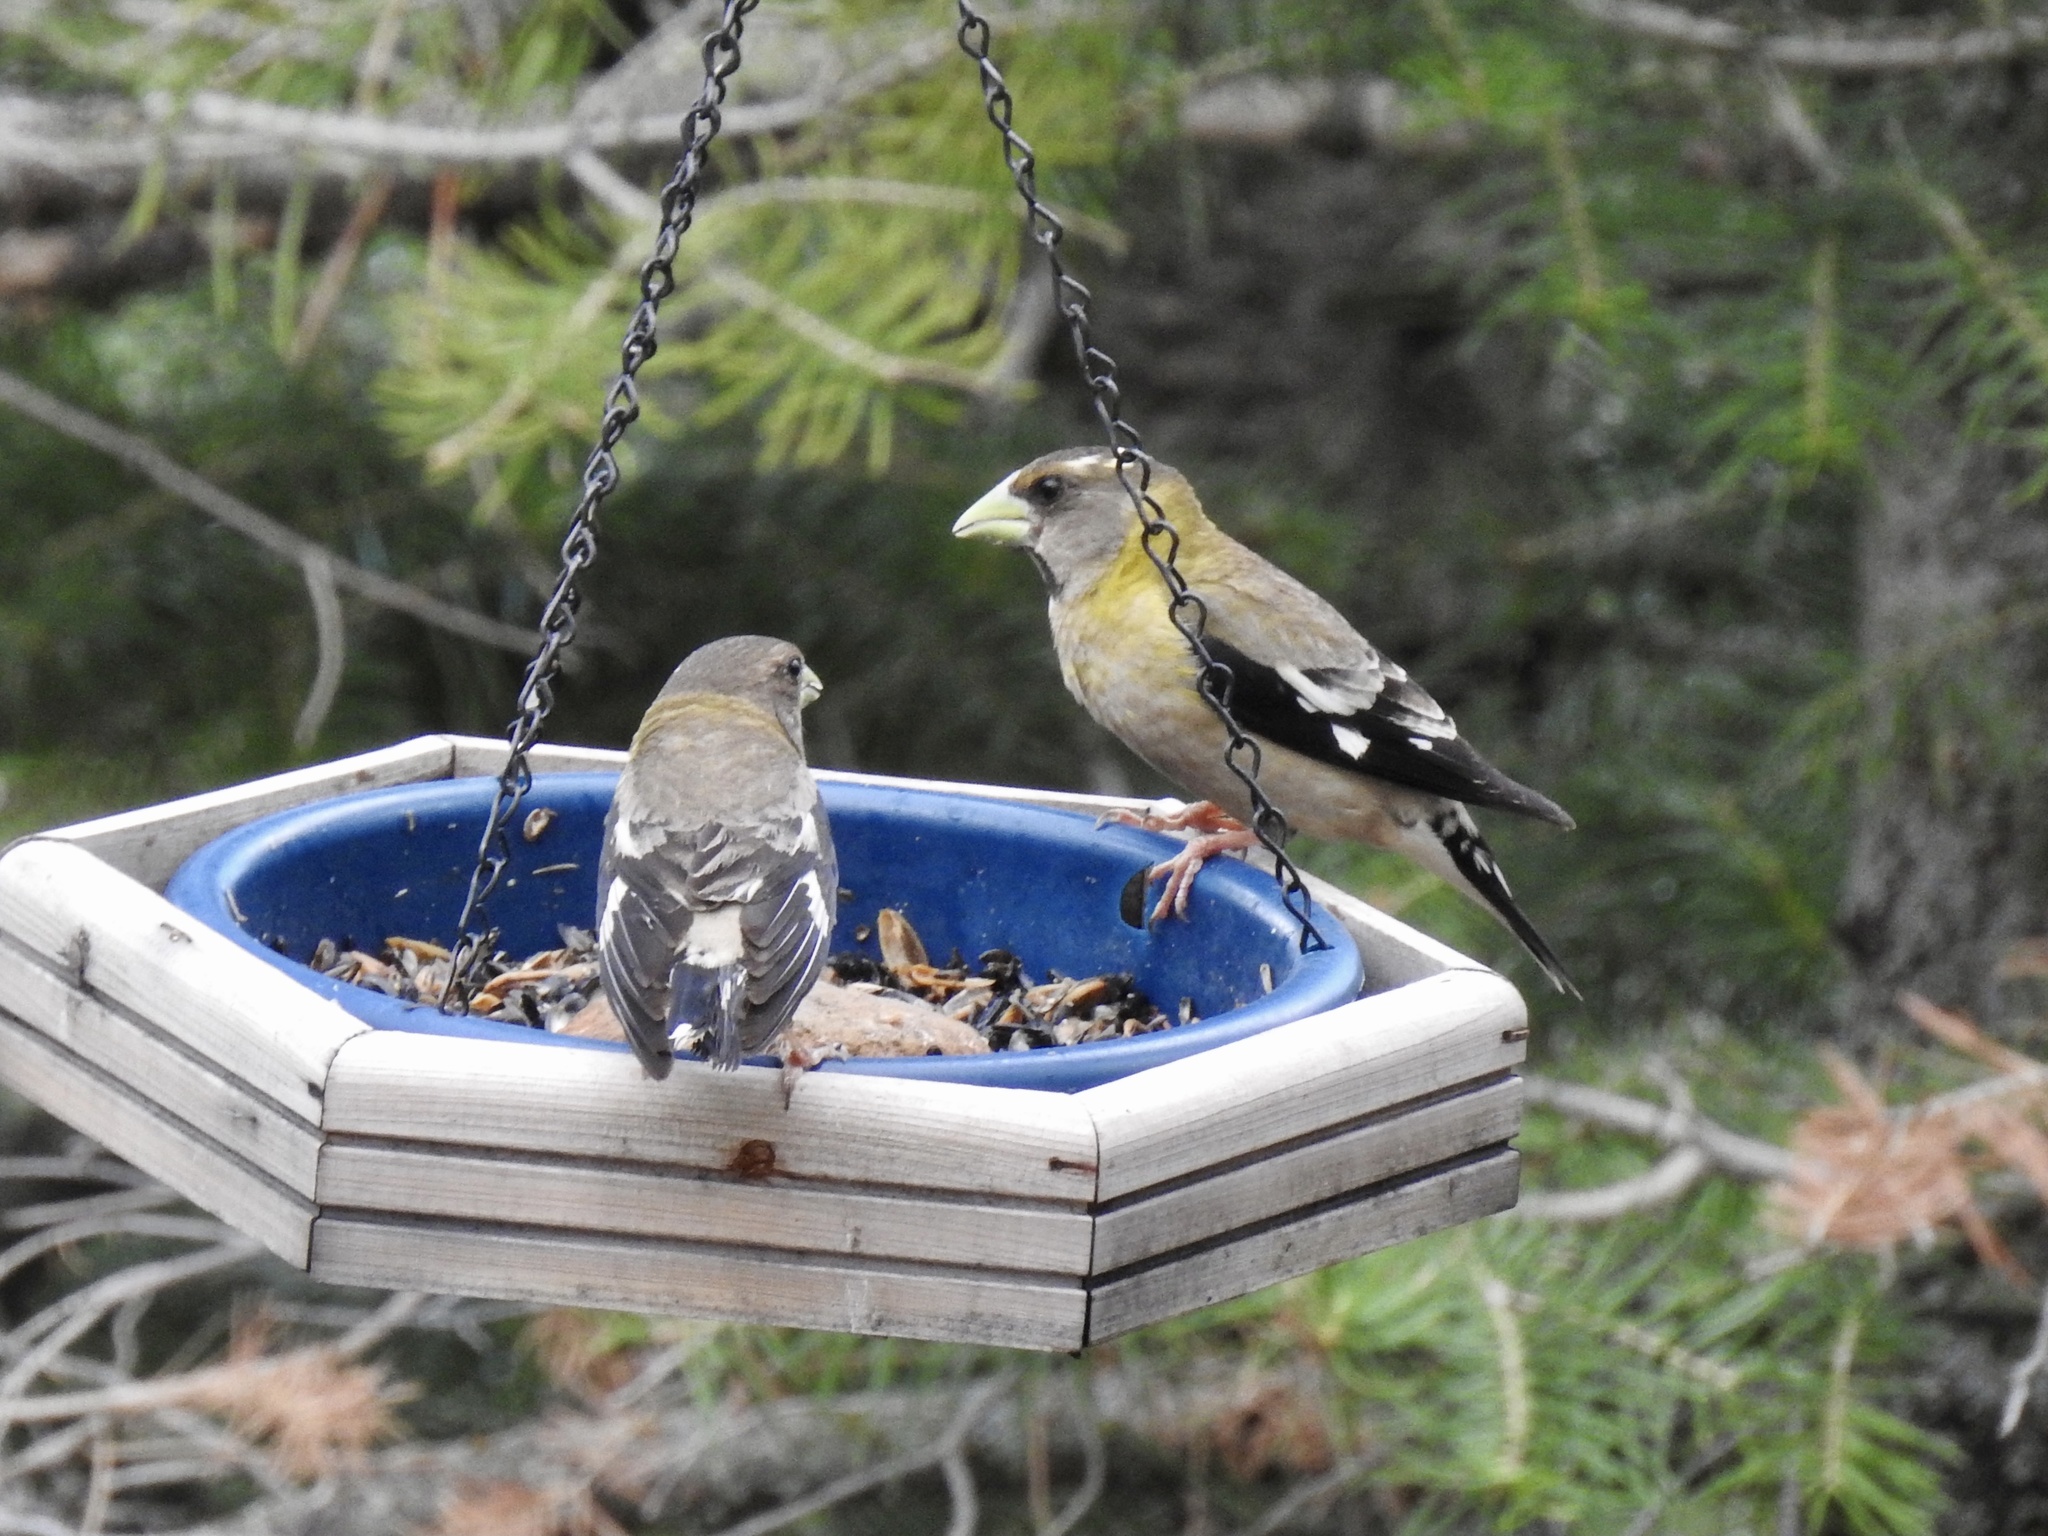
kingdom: Animalia
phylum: Chordata
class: Aves
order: Passeriformes
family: Fringillidae
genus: Hesperiphona
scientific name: Hesperiphona vespertina
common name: Evening grosbeak
